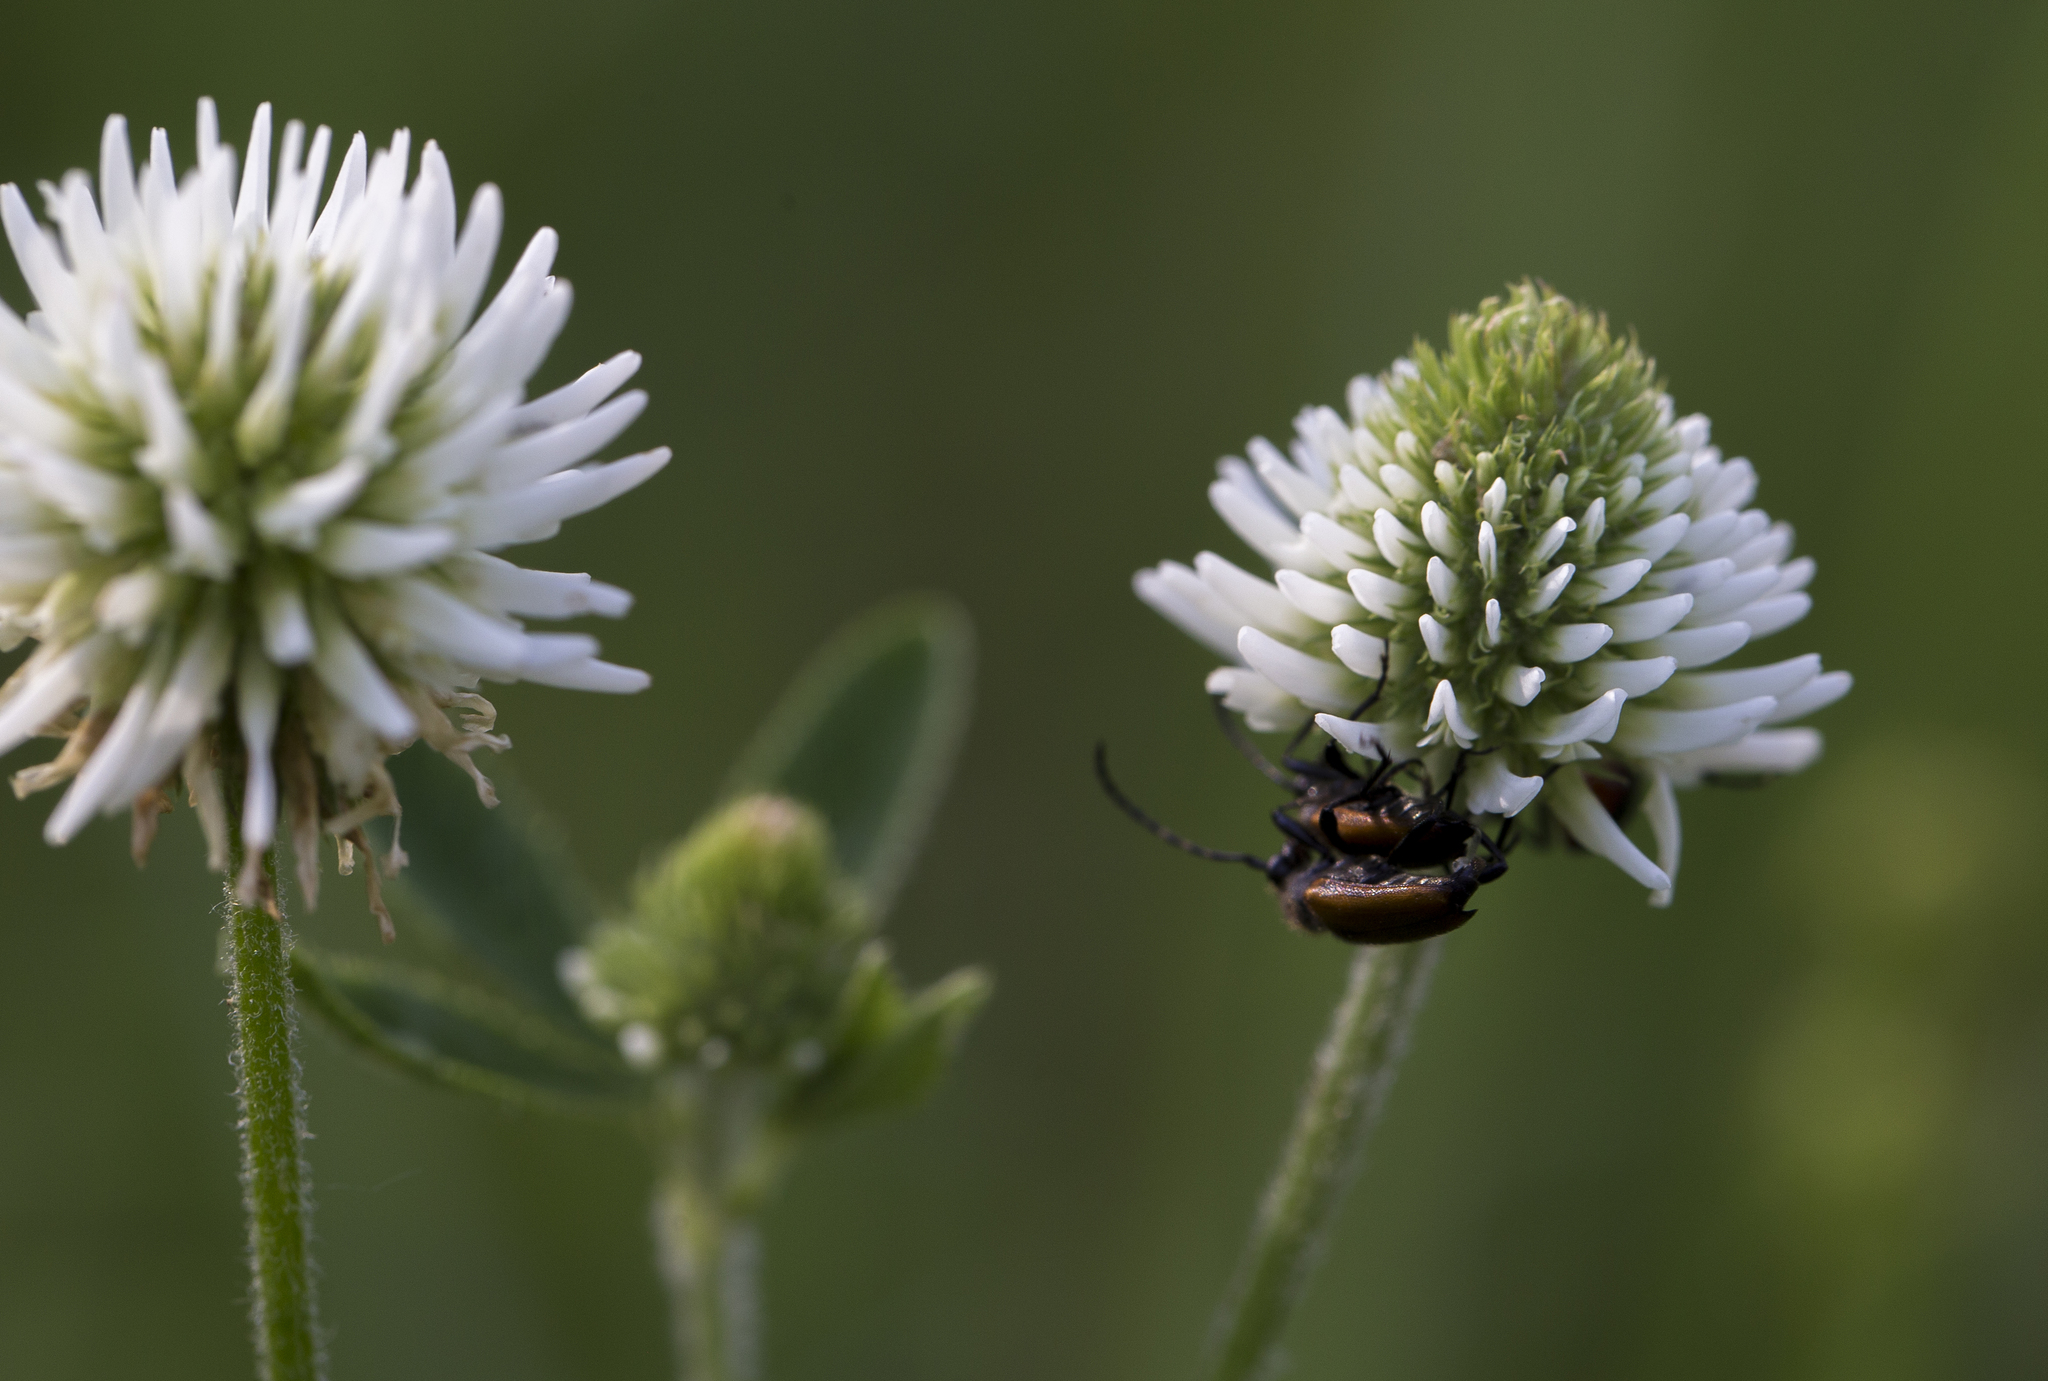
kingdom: Animalia
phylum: Arthropoda
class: Insecta
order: Coleoptera
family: Cerambycidae
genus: Paracorymbia
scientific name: Paracorymbia maculicornis
